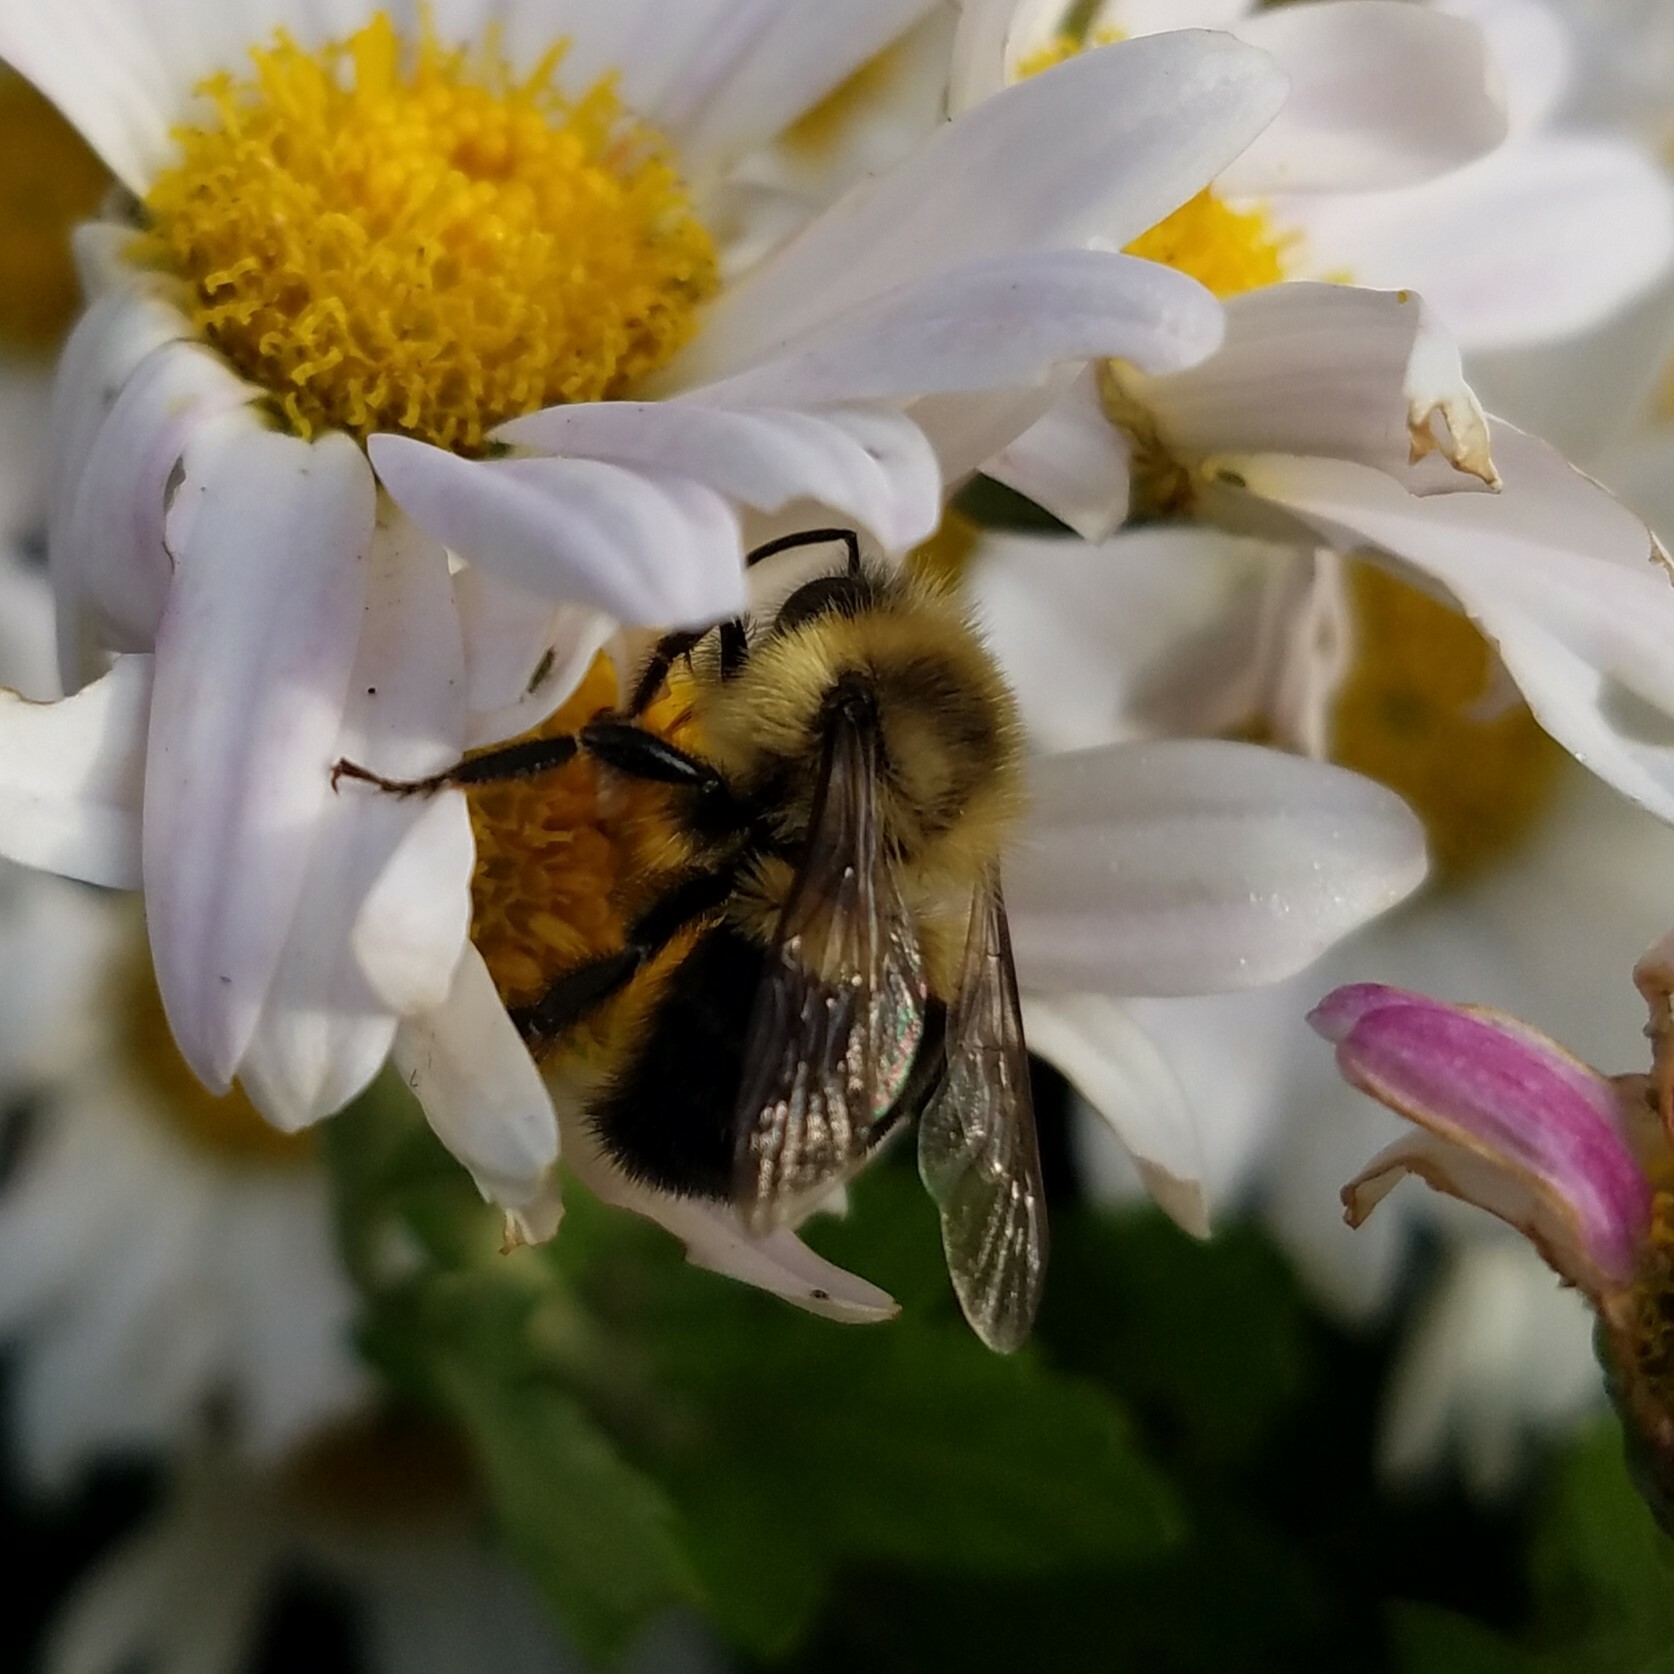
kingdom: Animalia
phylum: Arthropoda
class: Insecta
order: Hymenoptera
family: Apidae
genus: Bombus
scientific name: Bombus impatiens
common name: Common eastern bumble bee
